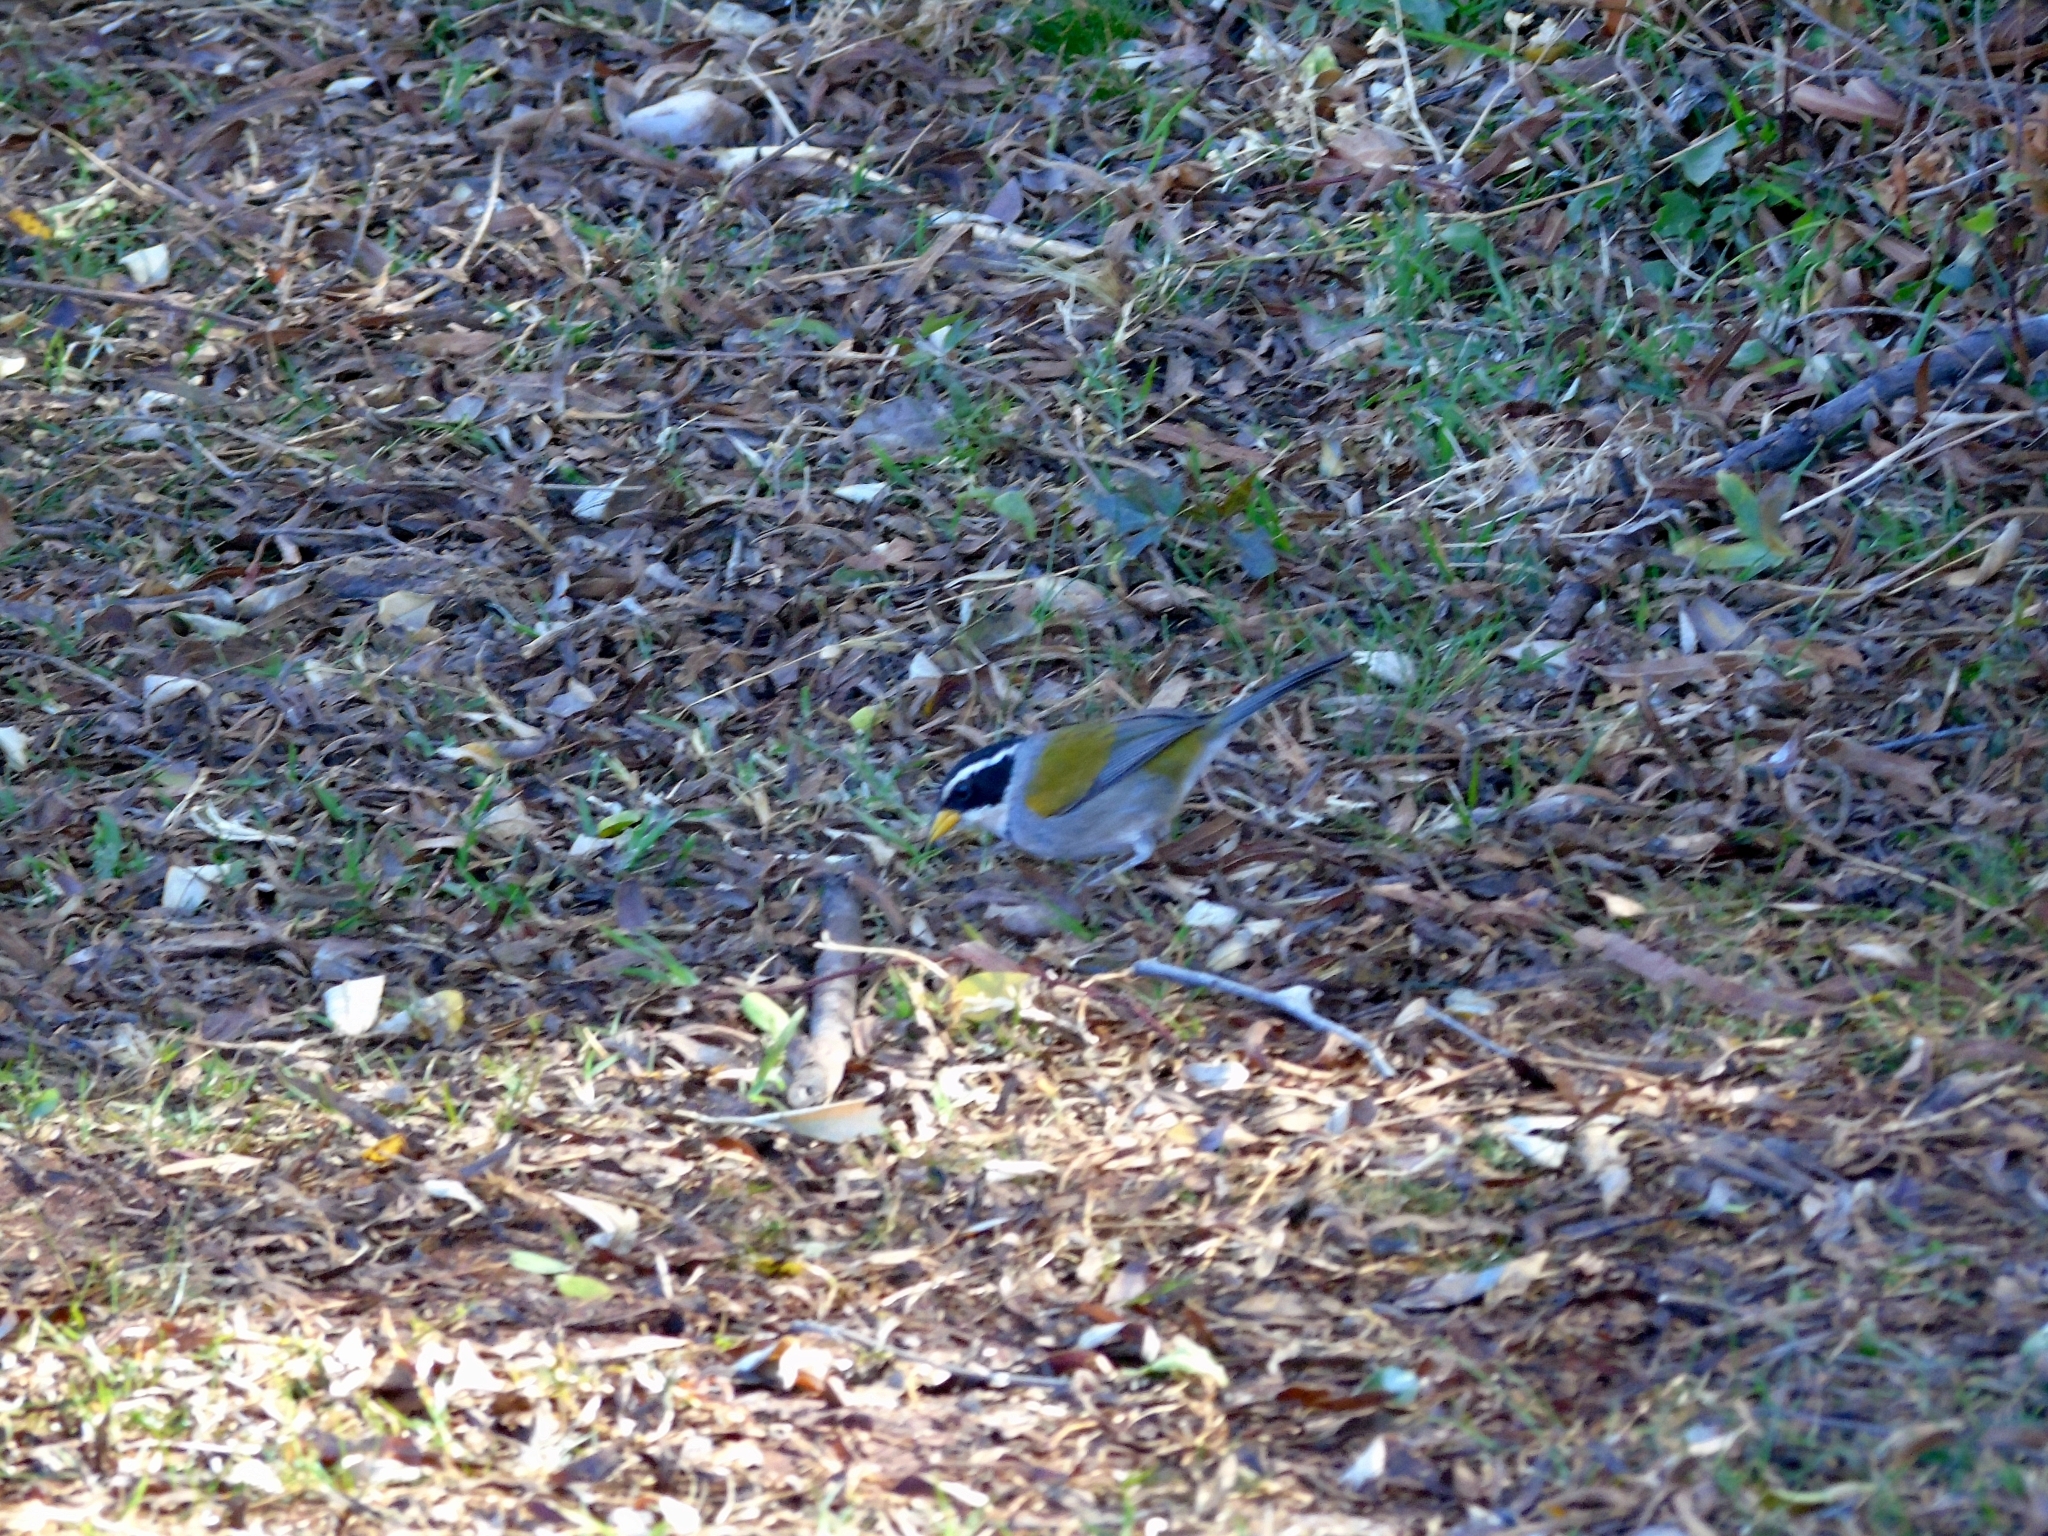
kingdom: Animalia
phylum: Chordata
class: Aves
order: Passeriformes
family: Passerellidae
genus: Arremon
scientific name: Arremon dorbignii
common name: Moss-backed sparrow
